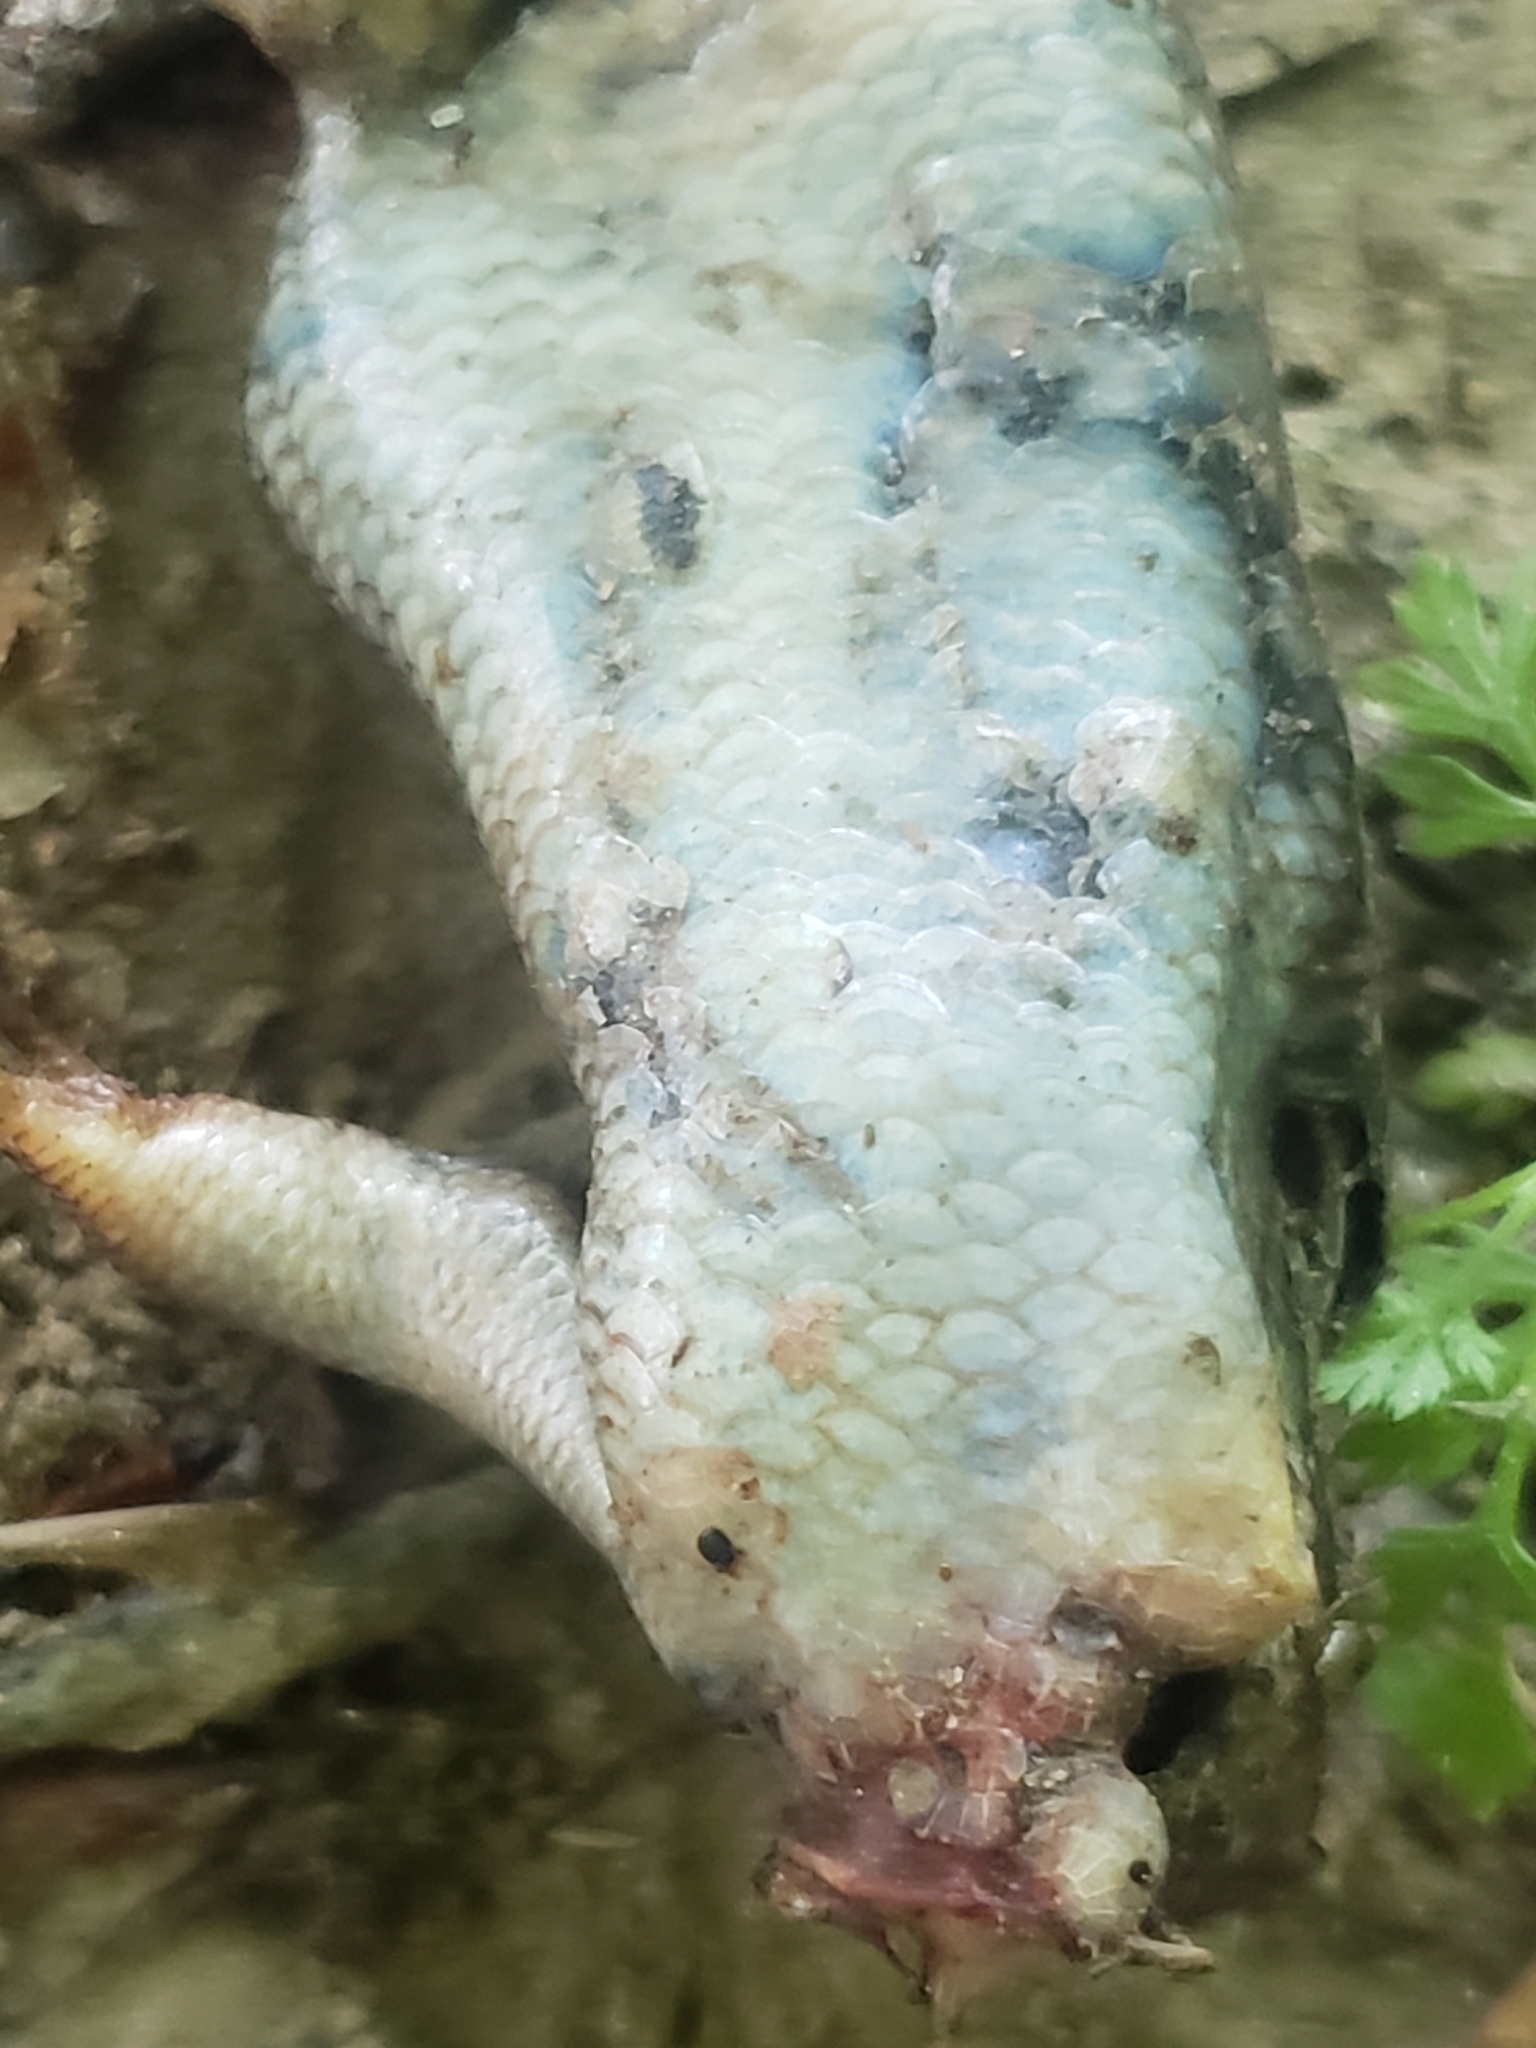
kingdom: Animalia
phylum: Chordata
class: Squamata
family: Scincidae
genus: Plestiodon
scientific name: Plestiodon laticeps
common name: Broadhead skink
